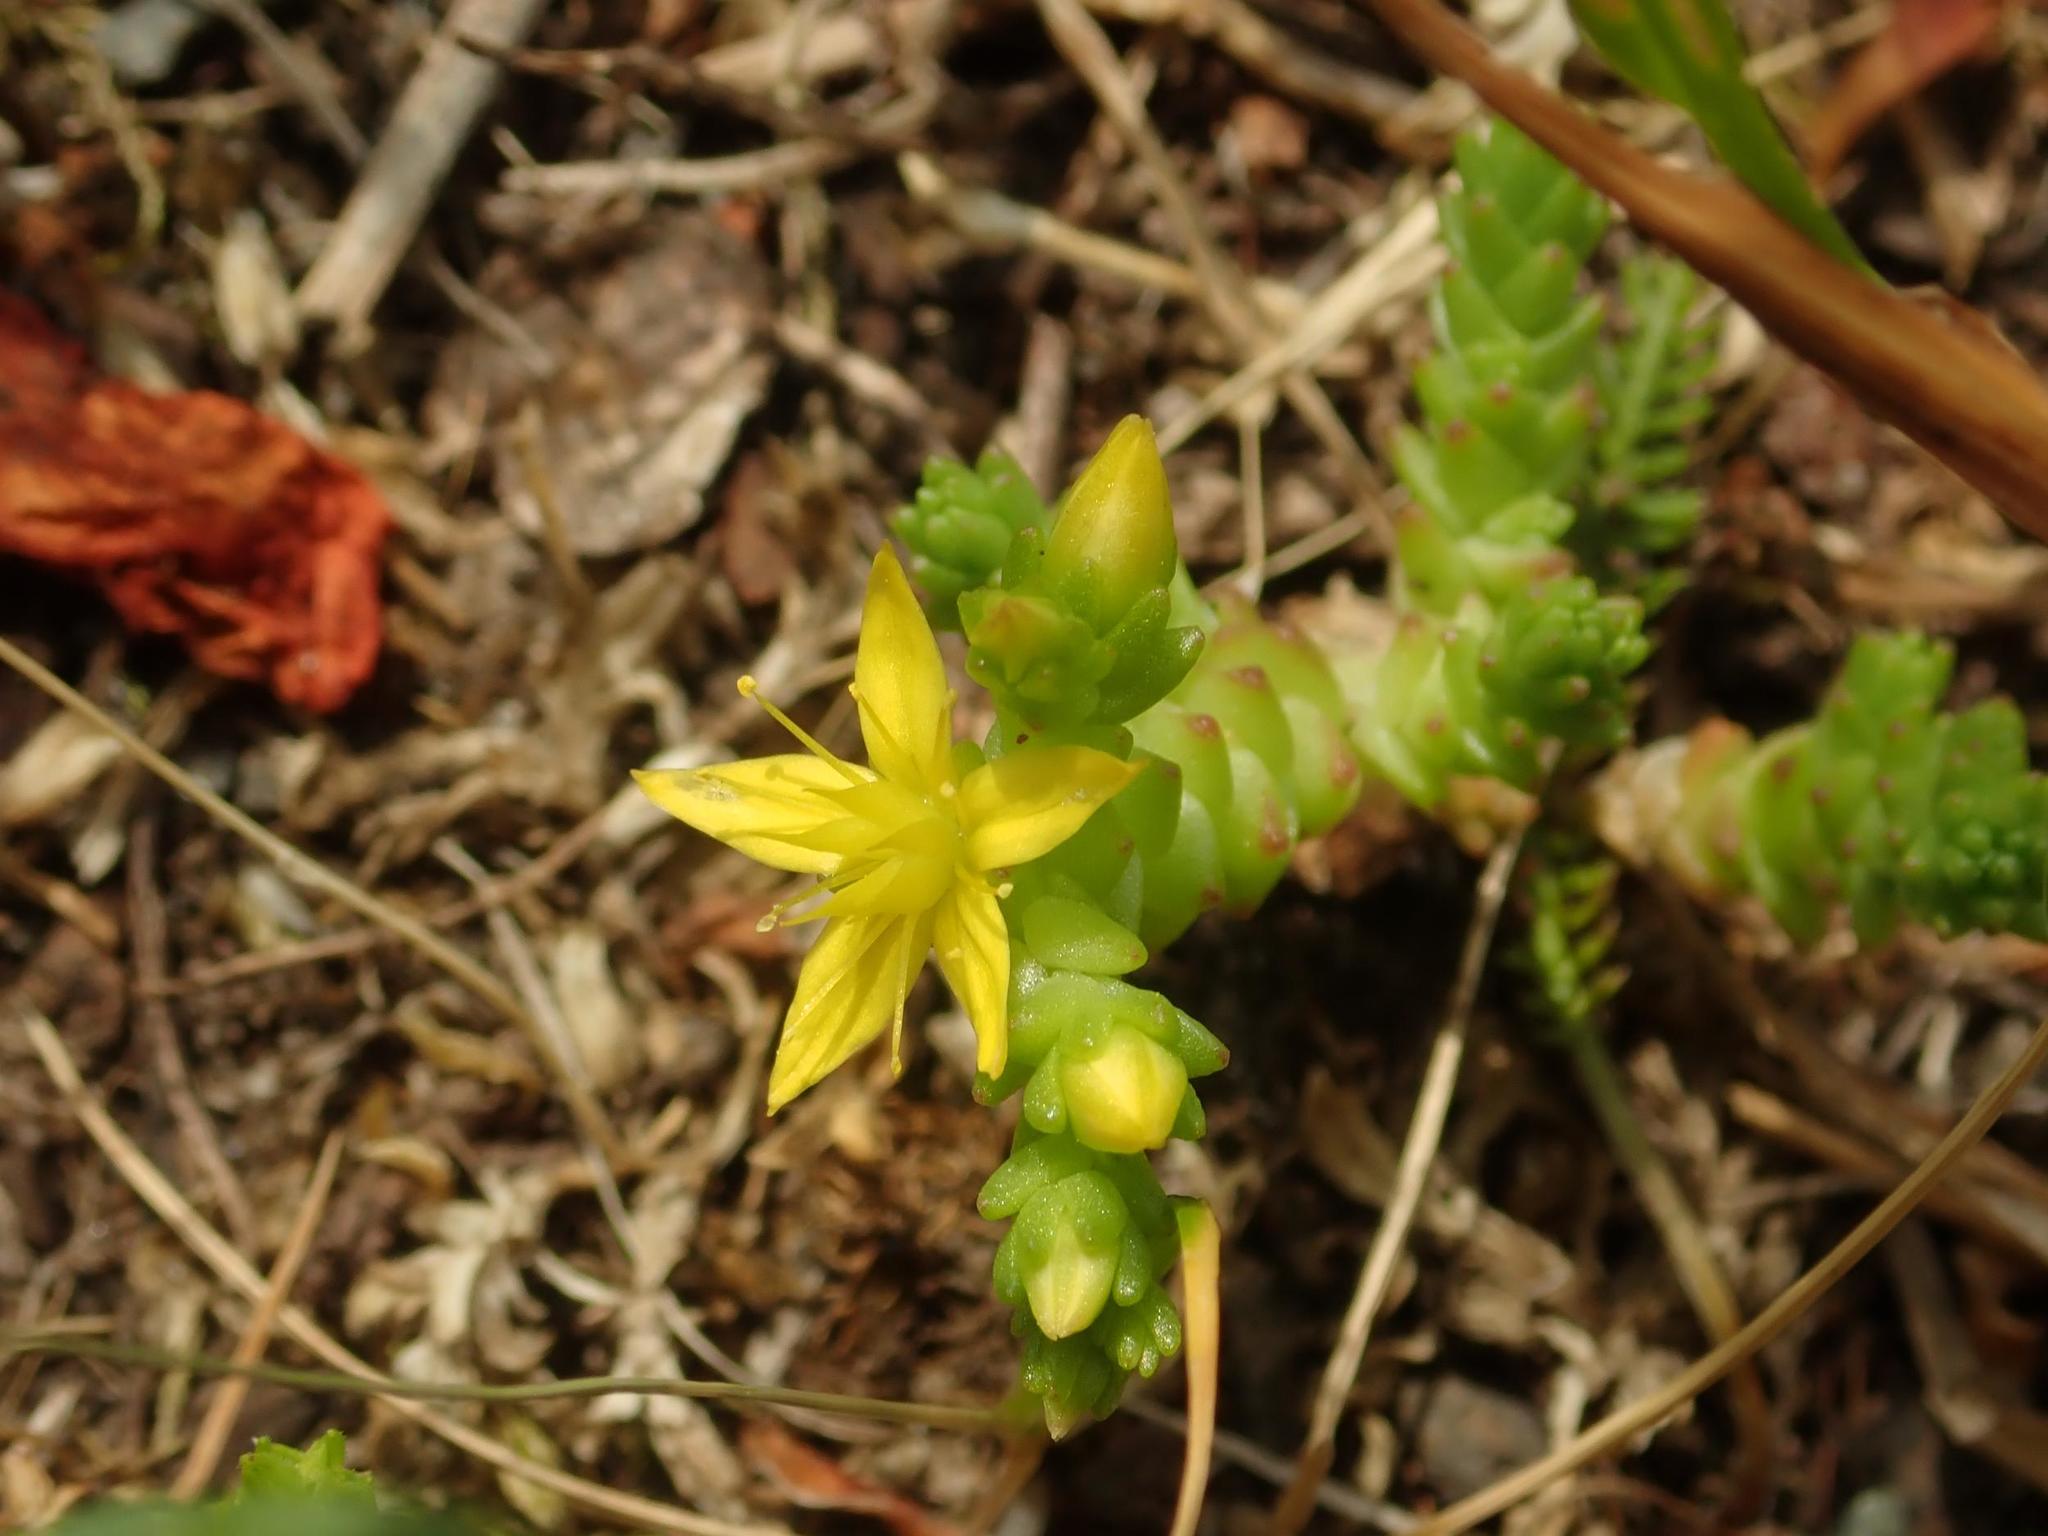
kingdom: Plantae
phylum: Tracheophyta
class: Magnoliopsida
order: Saxifragales
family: Crassulaceae
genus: Sedum
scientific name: Sedum acre
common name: Biting stonecrop
